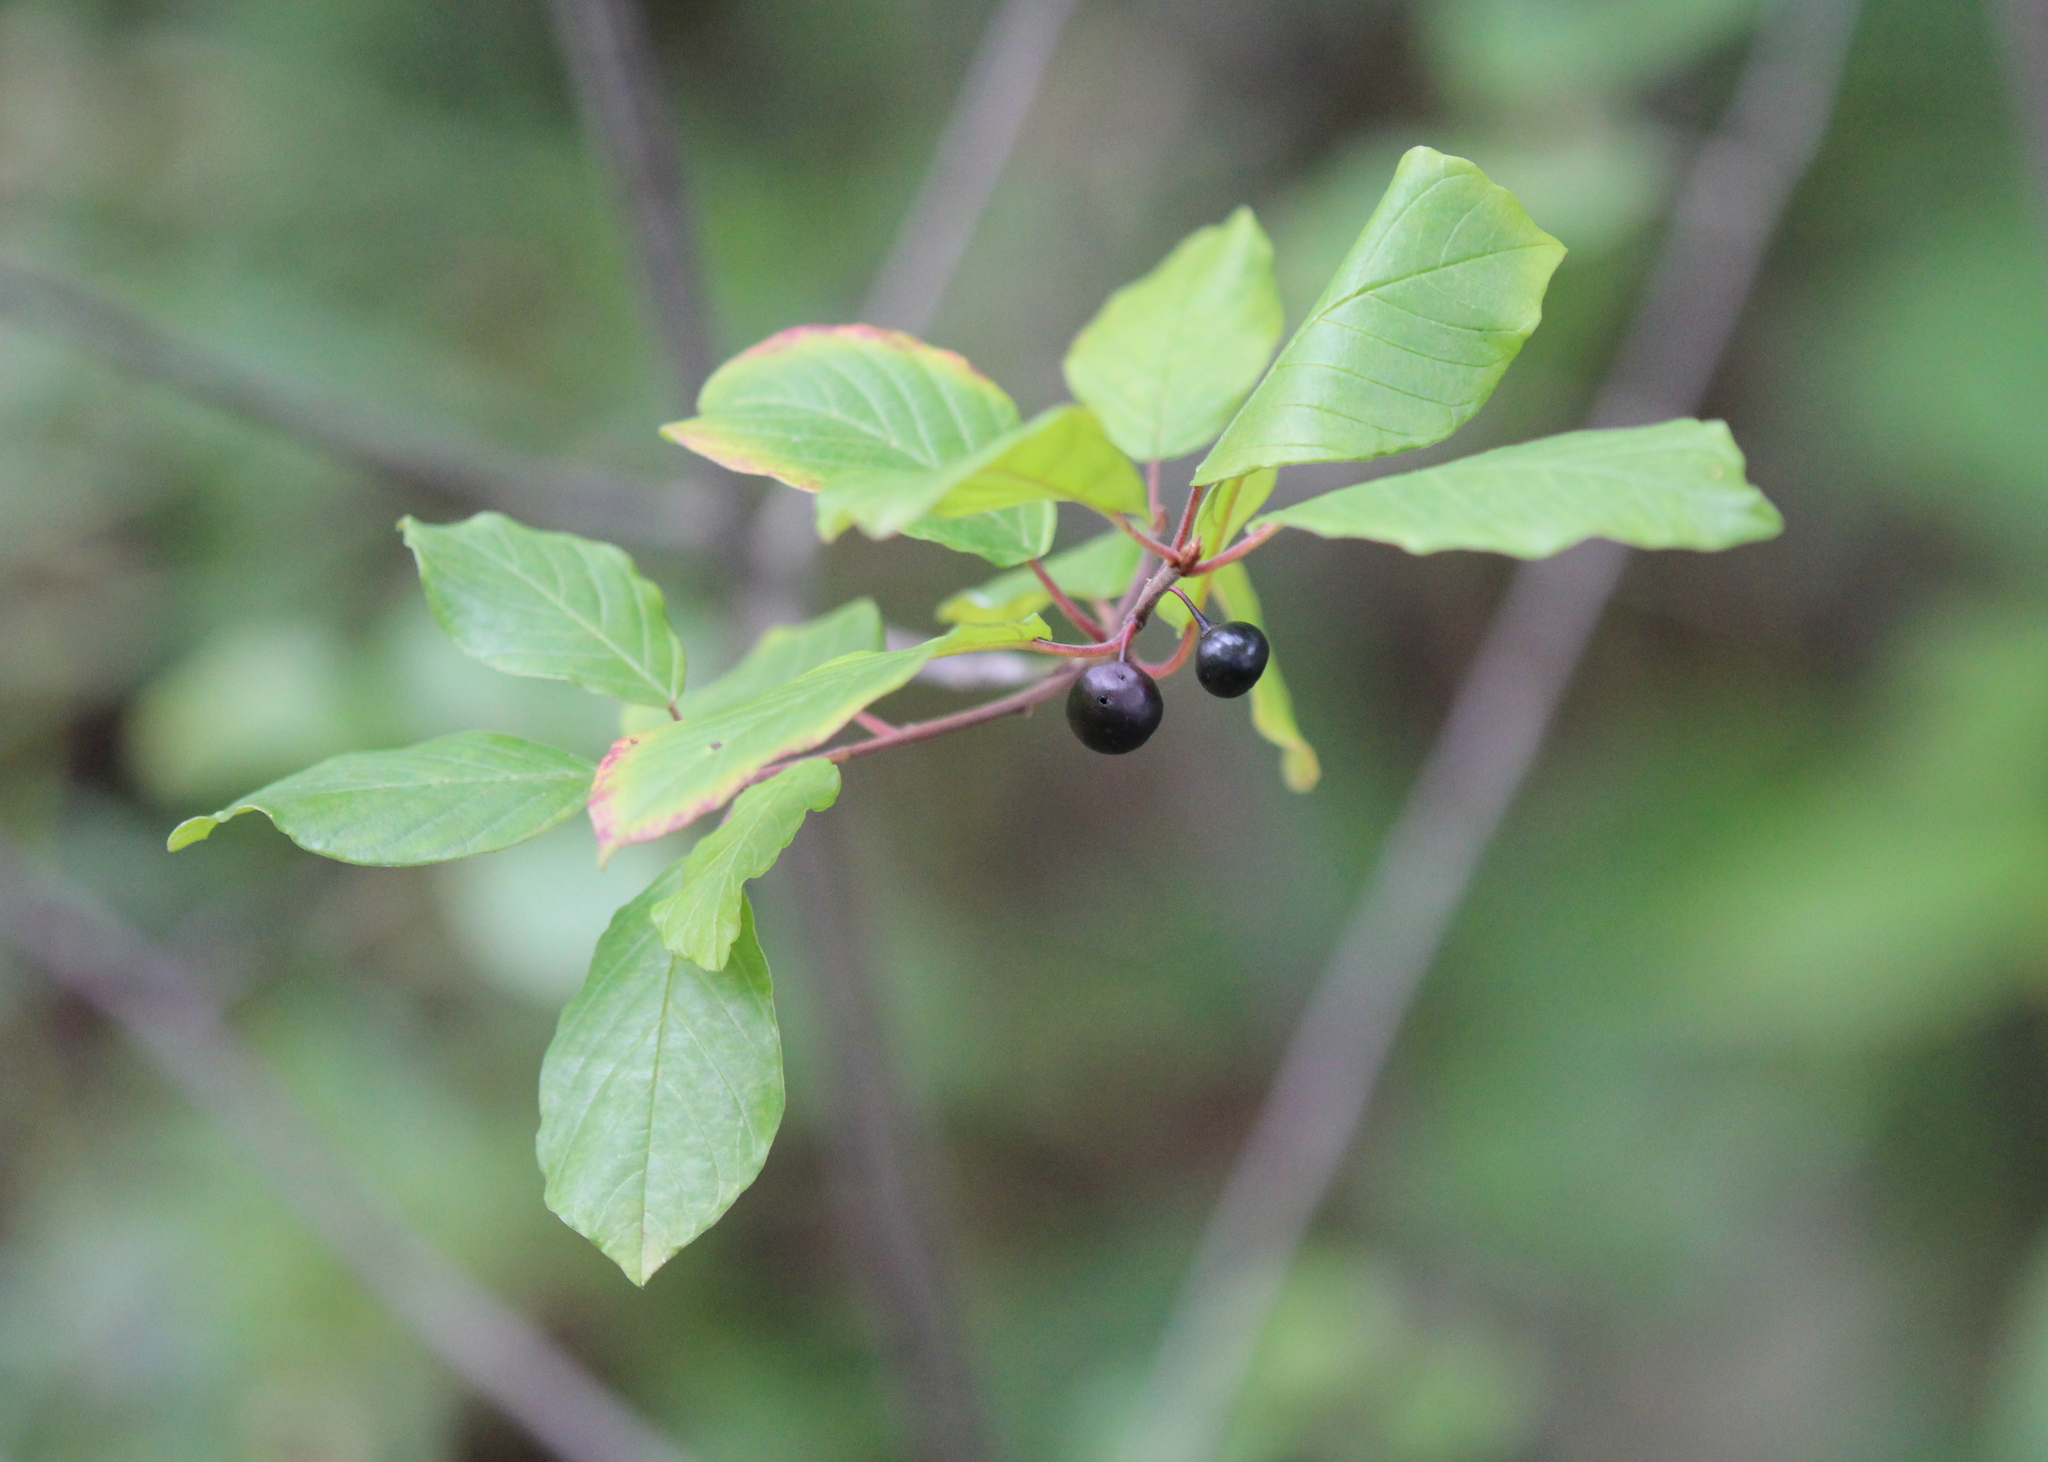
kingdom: Plantae
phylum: Tracheophyta
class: Magnoliopsida
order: Rosales
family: Rhamnaceae
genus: Frangula
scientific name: Frangula alnus
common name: Alder buckthorn
